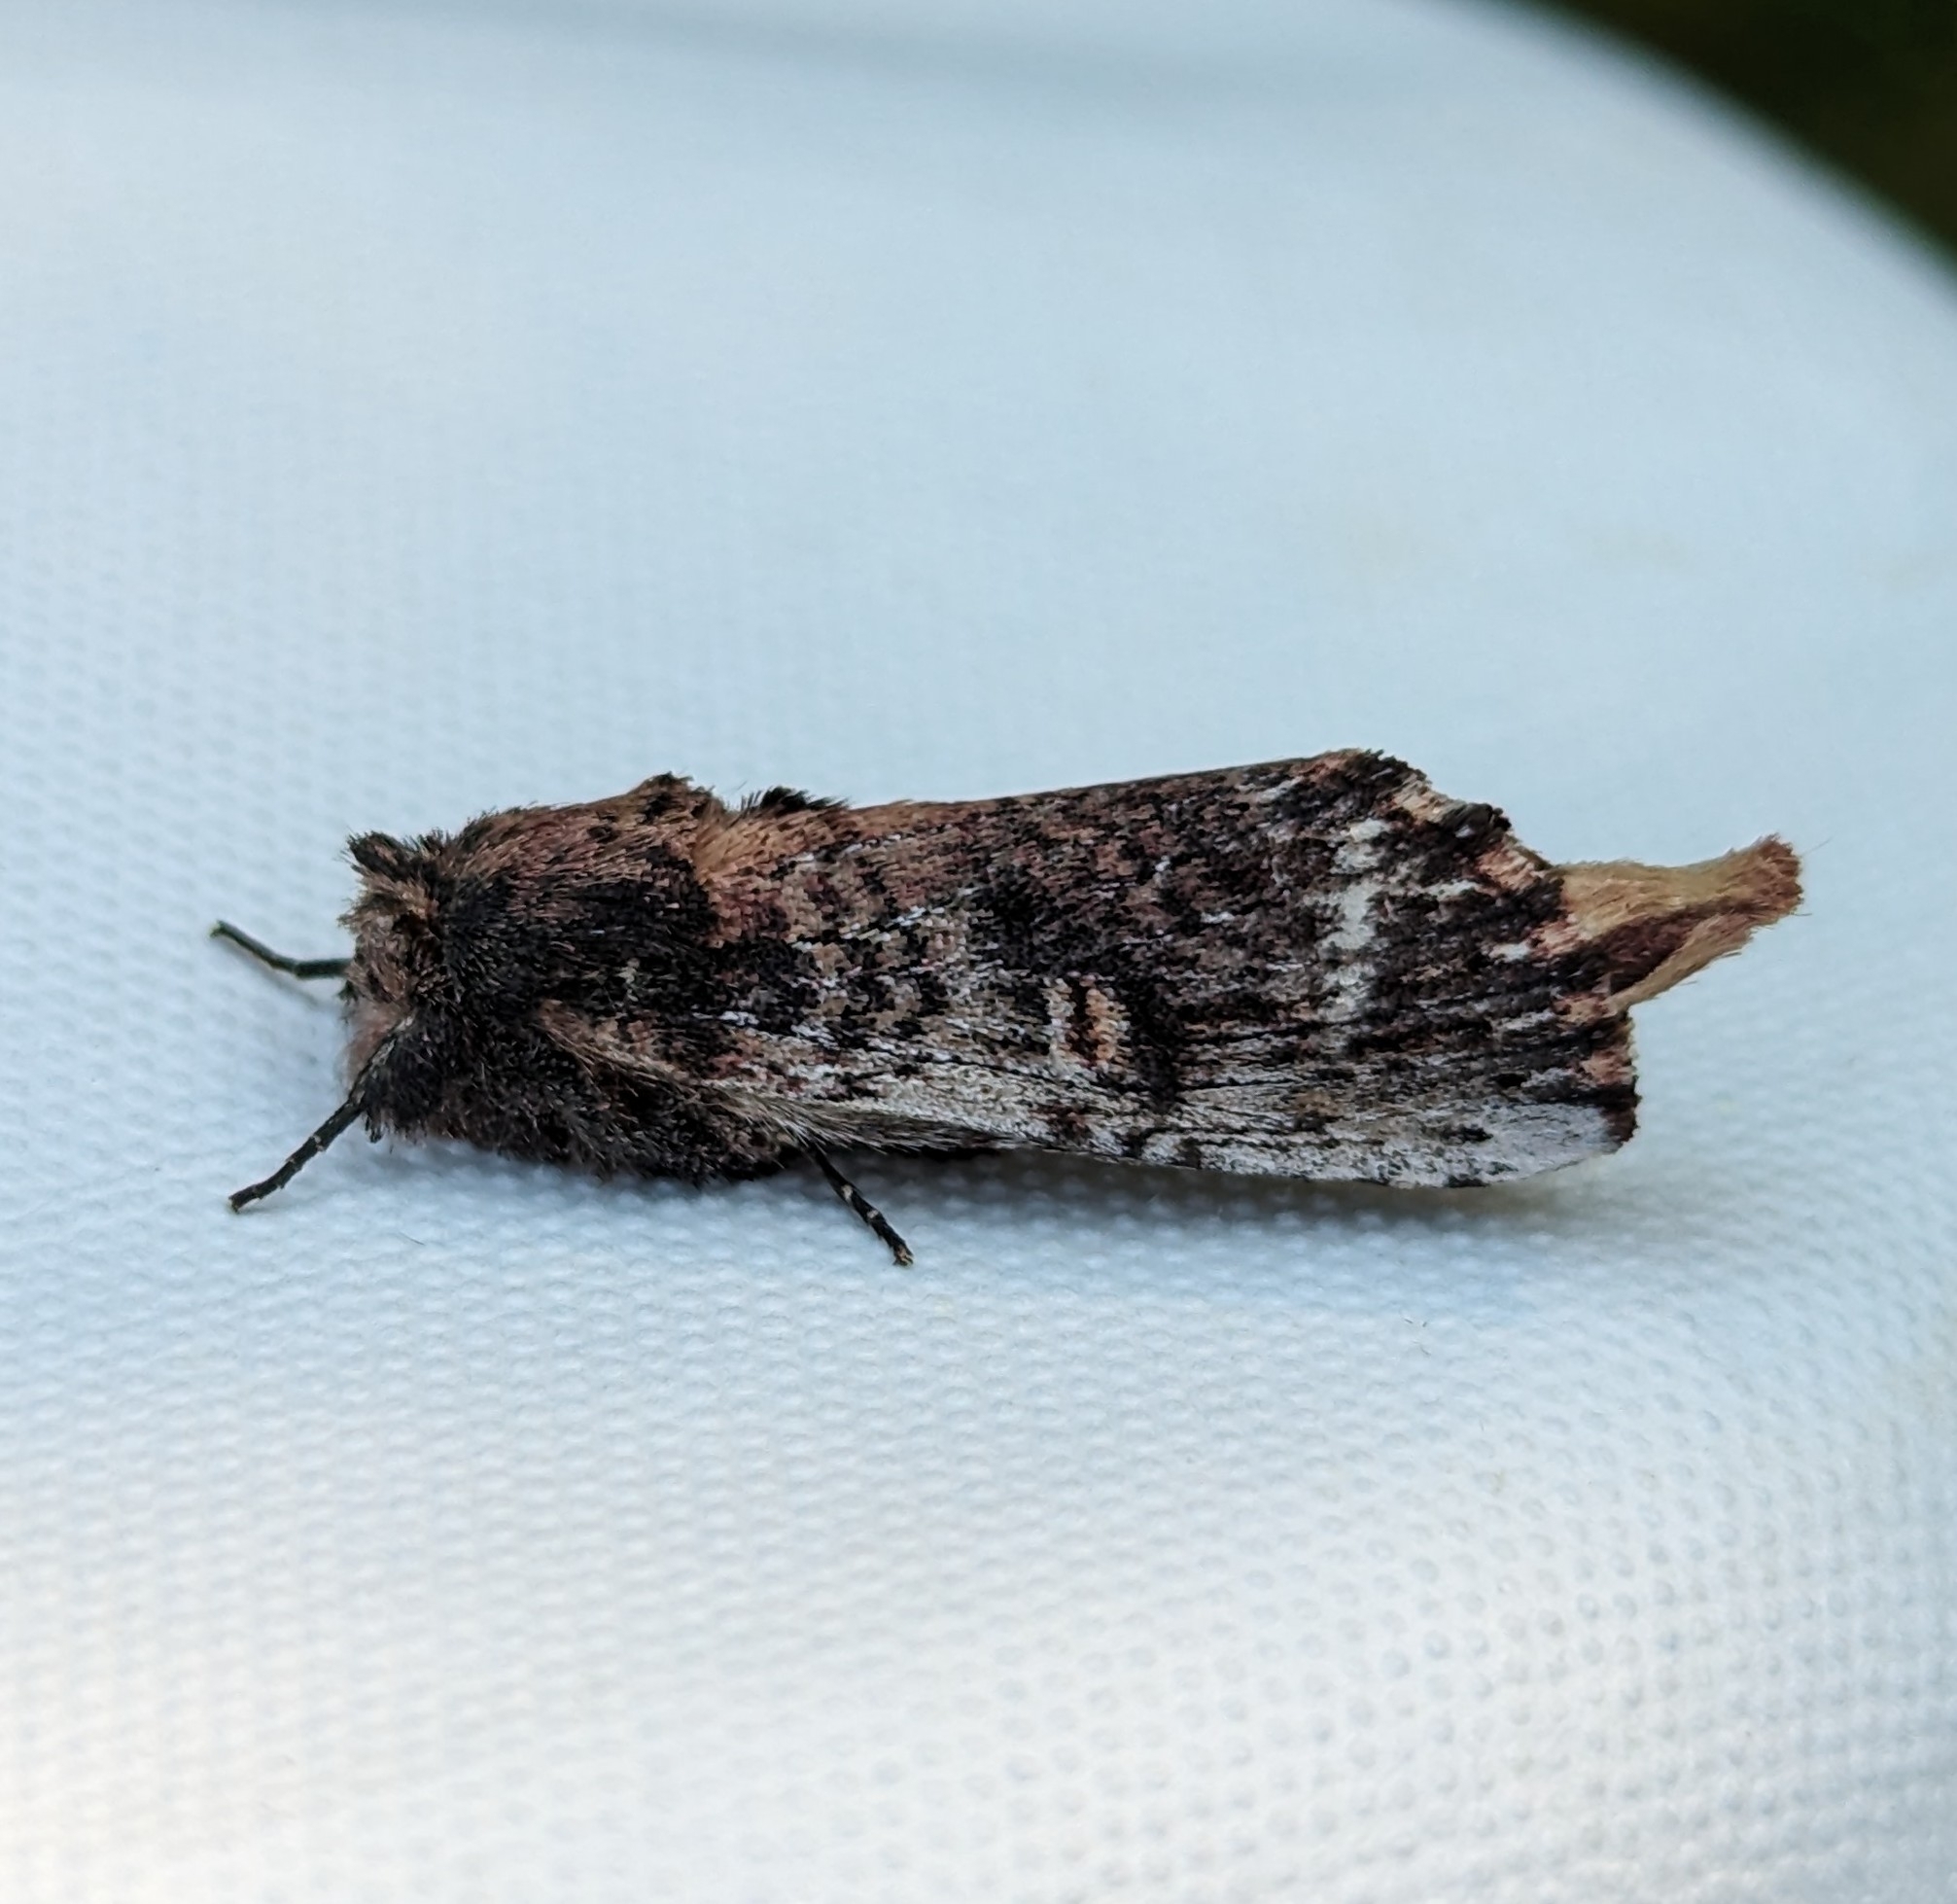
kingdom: Animalia
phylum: Arthropoda
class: Insecta
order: Lepidoptera
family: Notodontidae
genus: Schizura
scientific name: Schizura ipomaeae
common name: Morning-glory prominent
